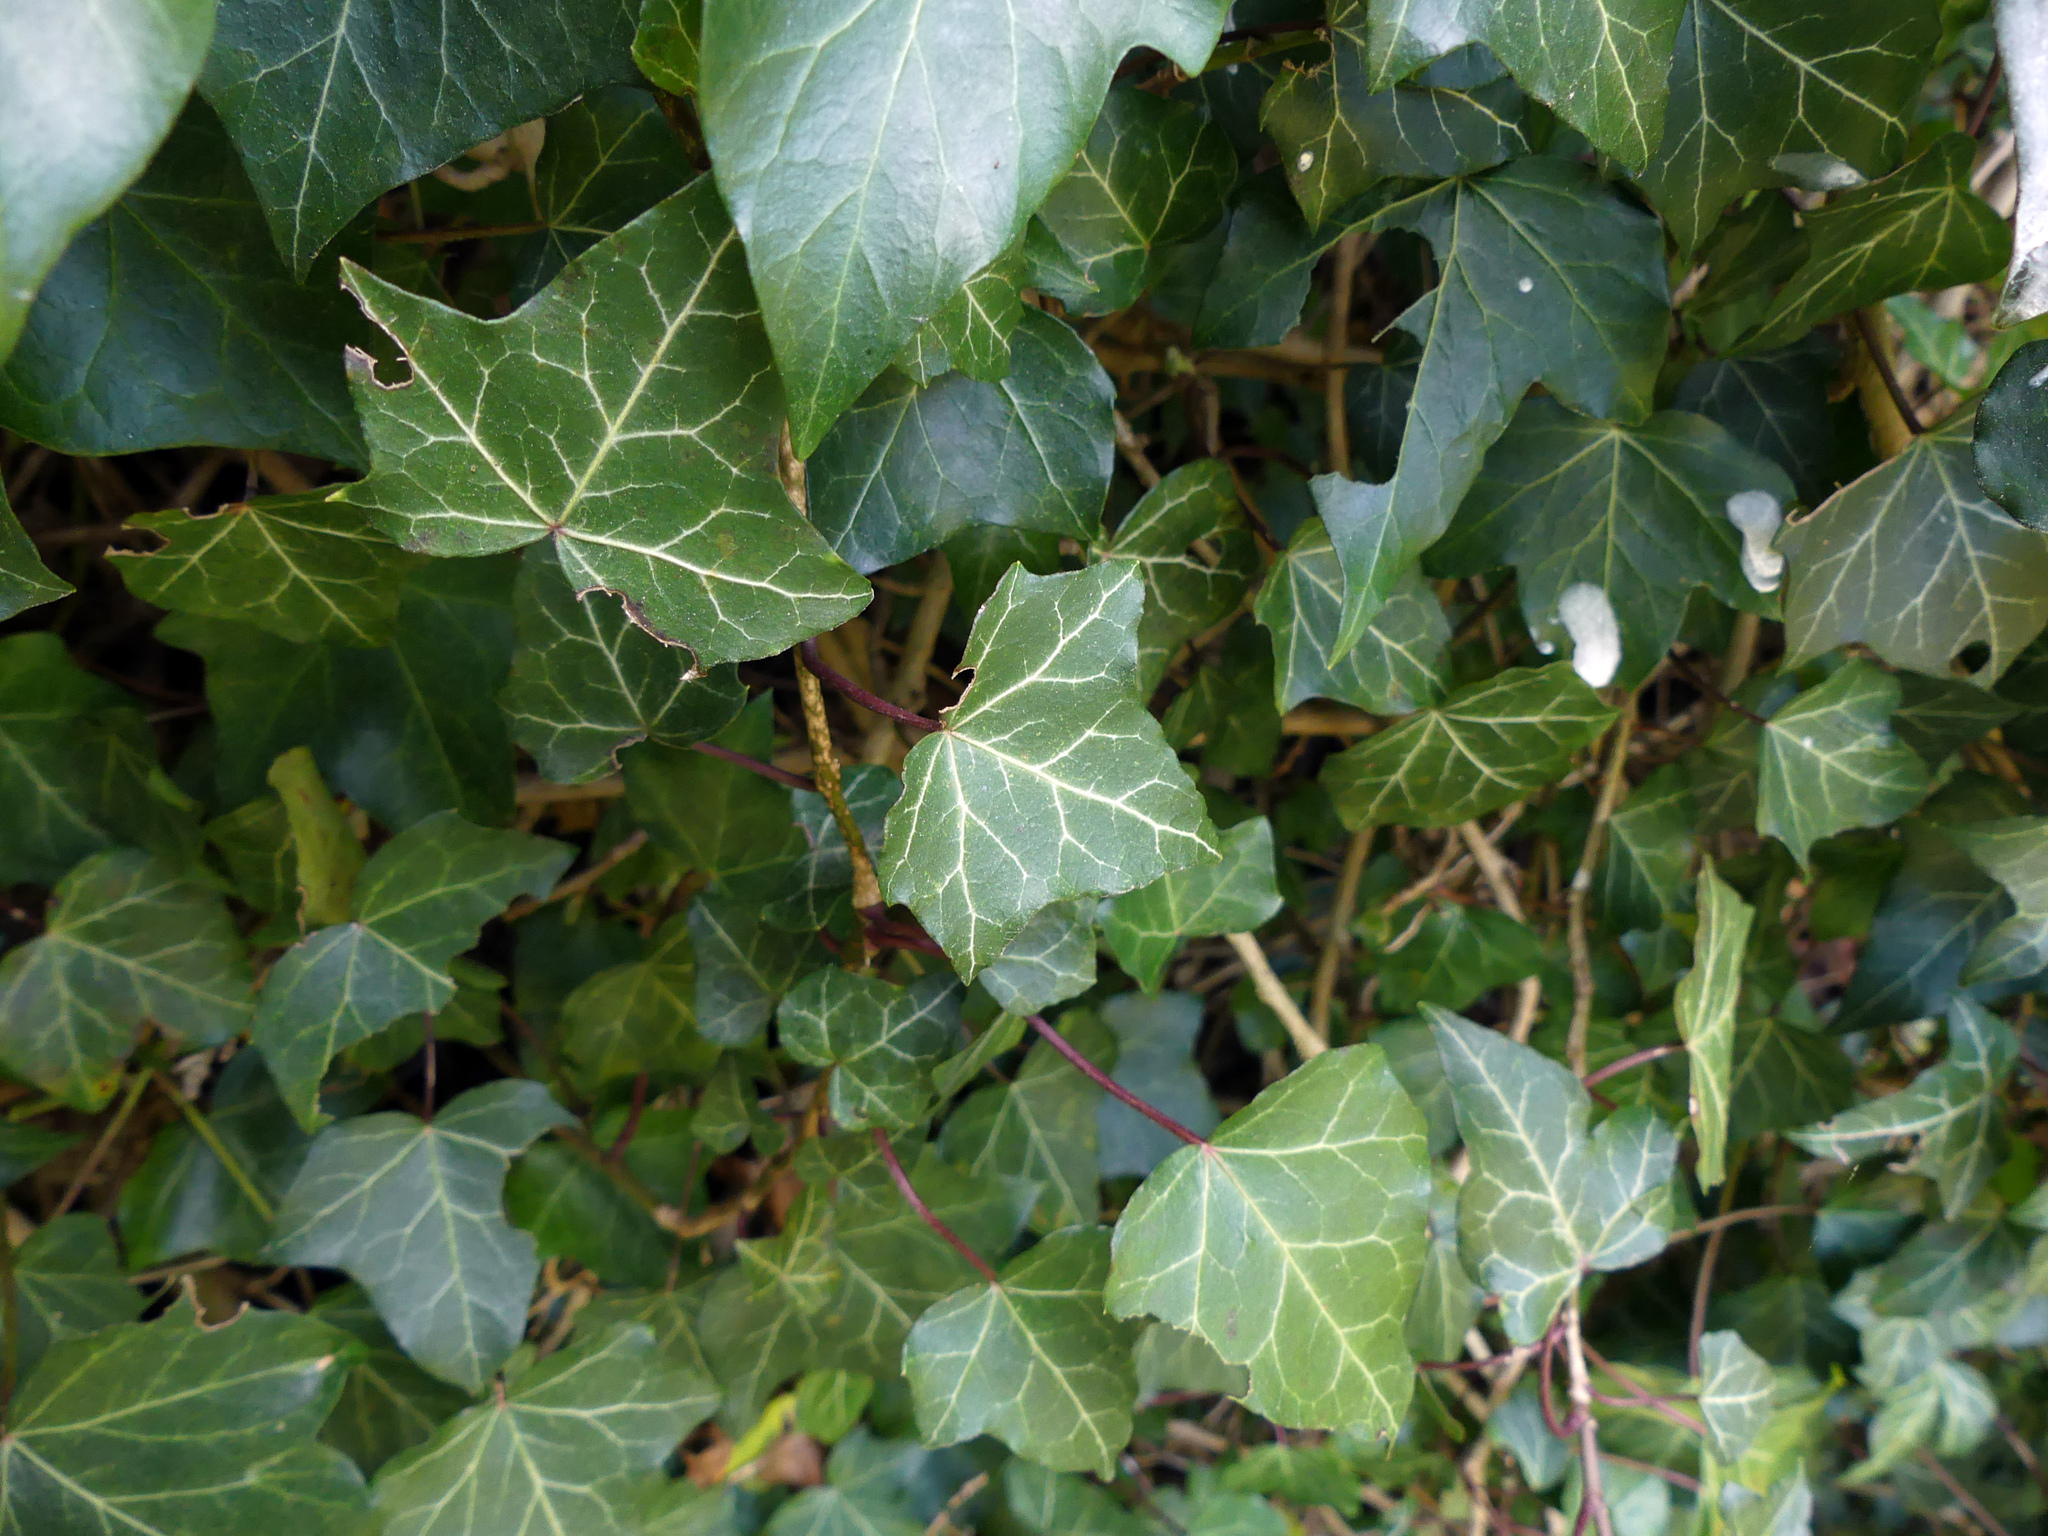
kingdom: Plantae
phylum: Tracheophyta
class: Magnoliopsida
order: Apiales
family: Araliaceae
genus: Hedera
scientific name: Hedera helix
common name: Ivy
